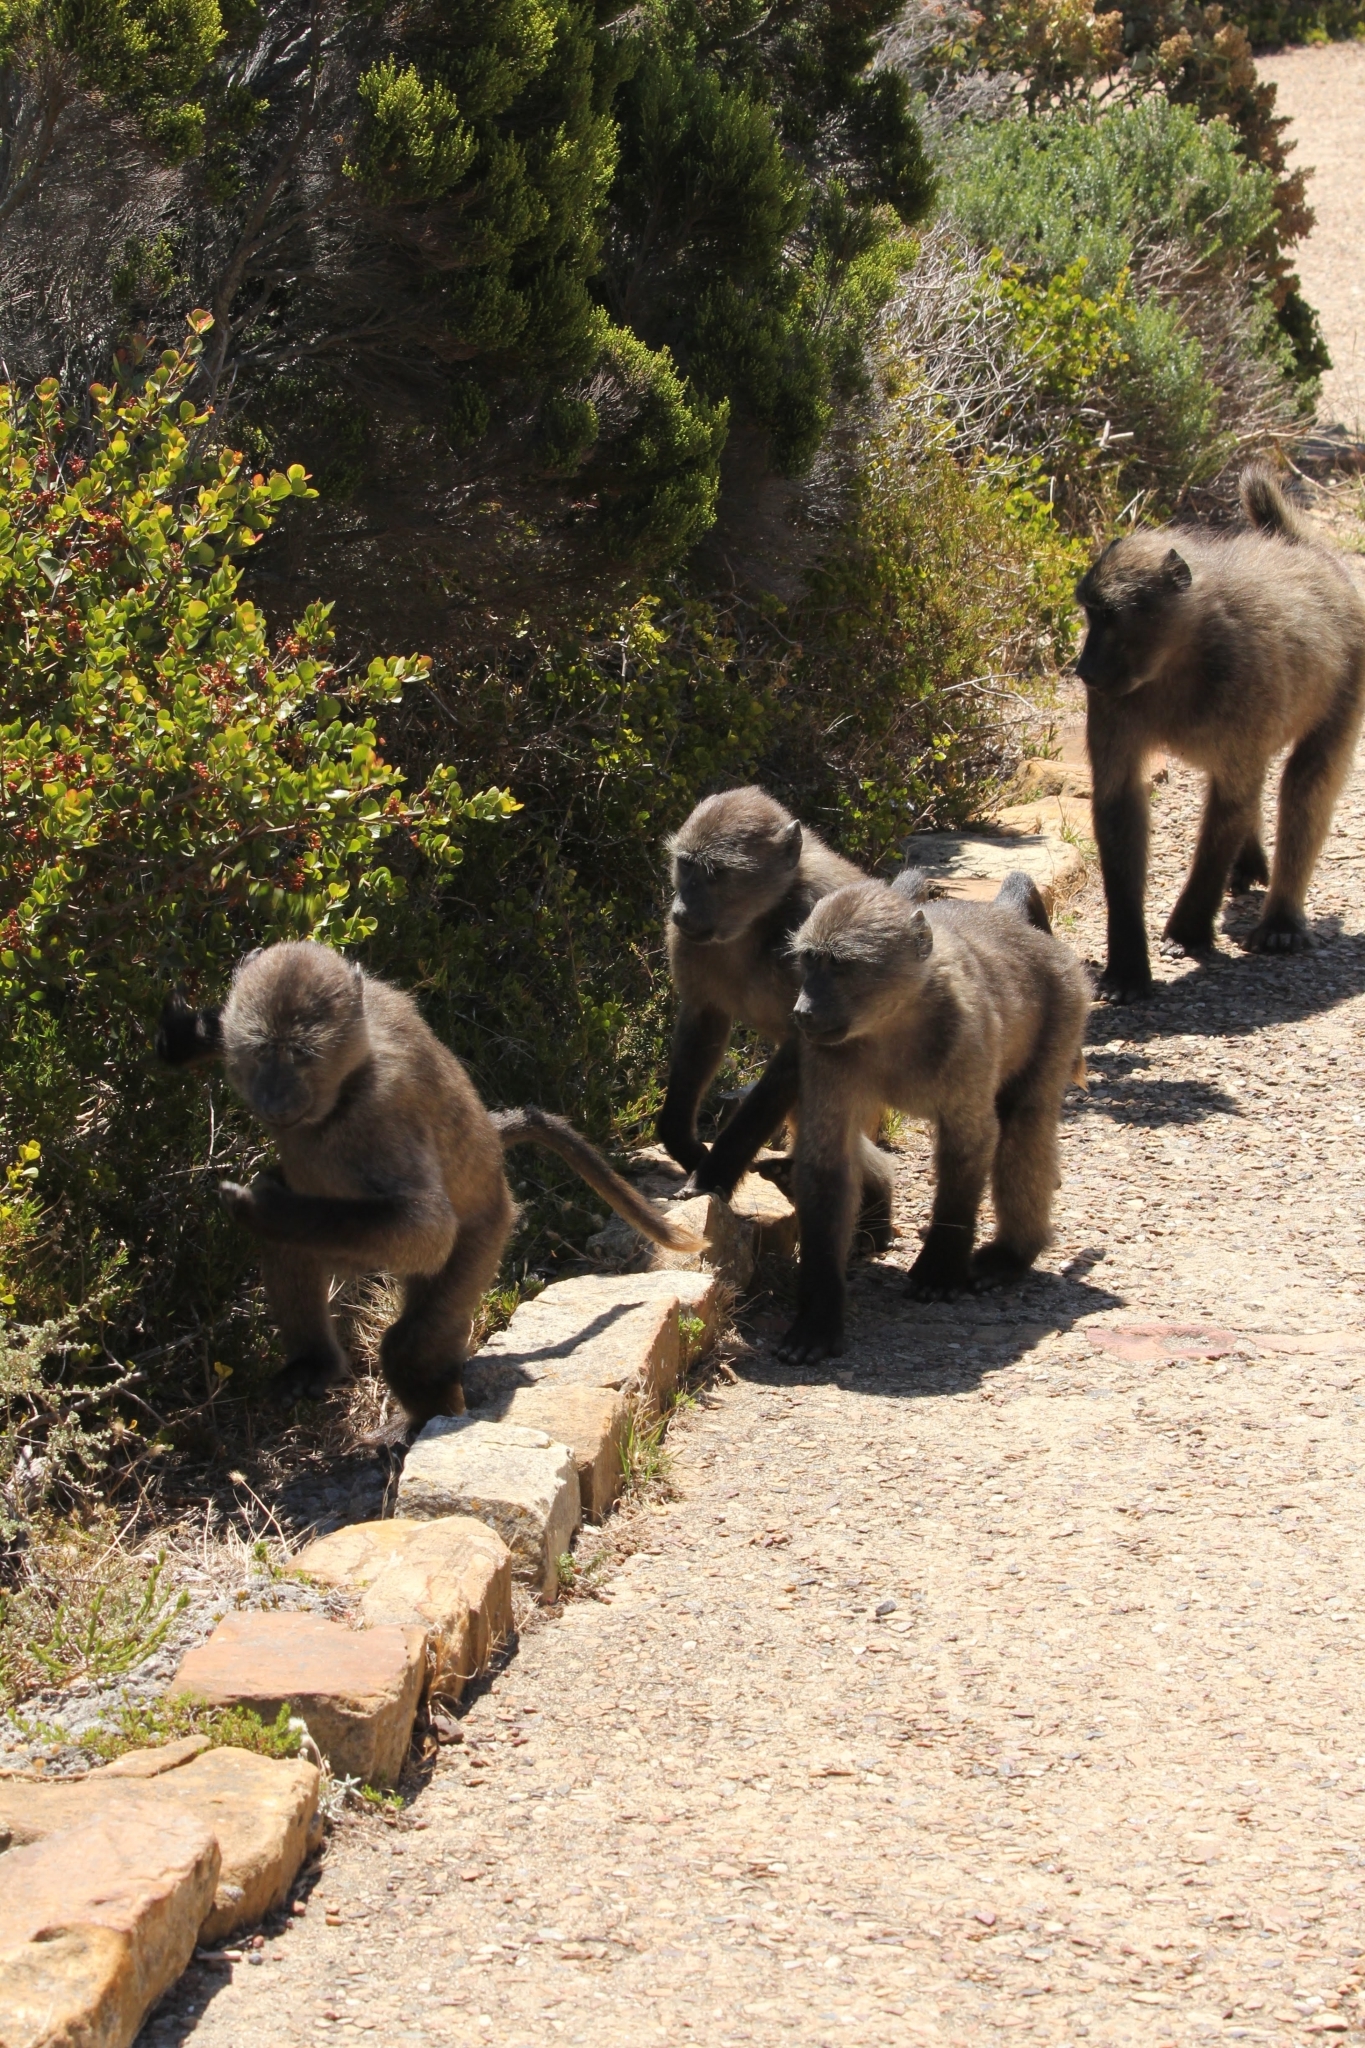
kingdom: Animalia
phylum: Chordata
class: Mammalia
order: Primates
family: Cercopithecidae
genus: Papio
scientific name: Papio ursinus
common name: Chacma baboon
